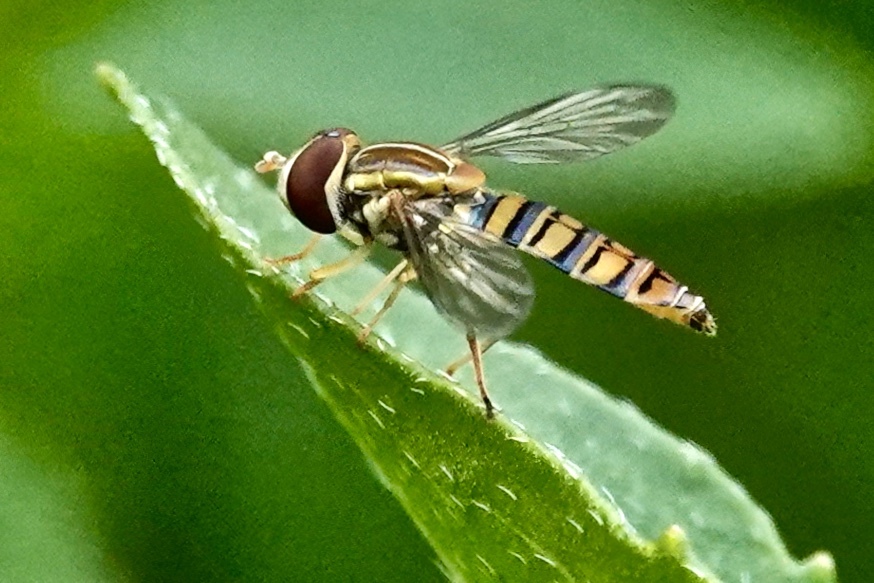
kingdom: Animalia
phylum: Arthropoda
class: Insecta
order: Diptera
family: Syrphidae
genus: Toxomerus
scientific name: Toxomerus politus
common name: Maize calligrapher
